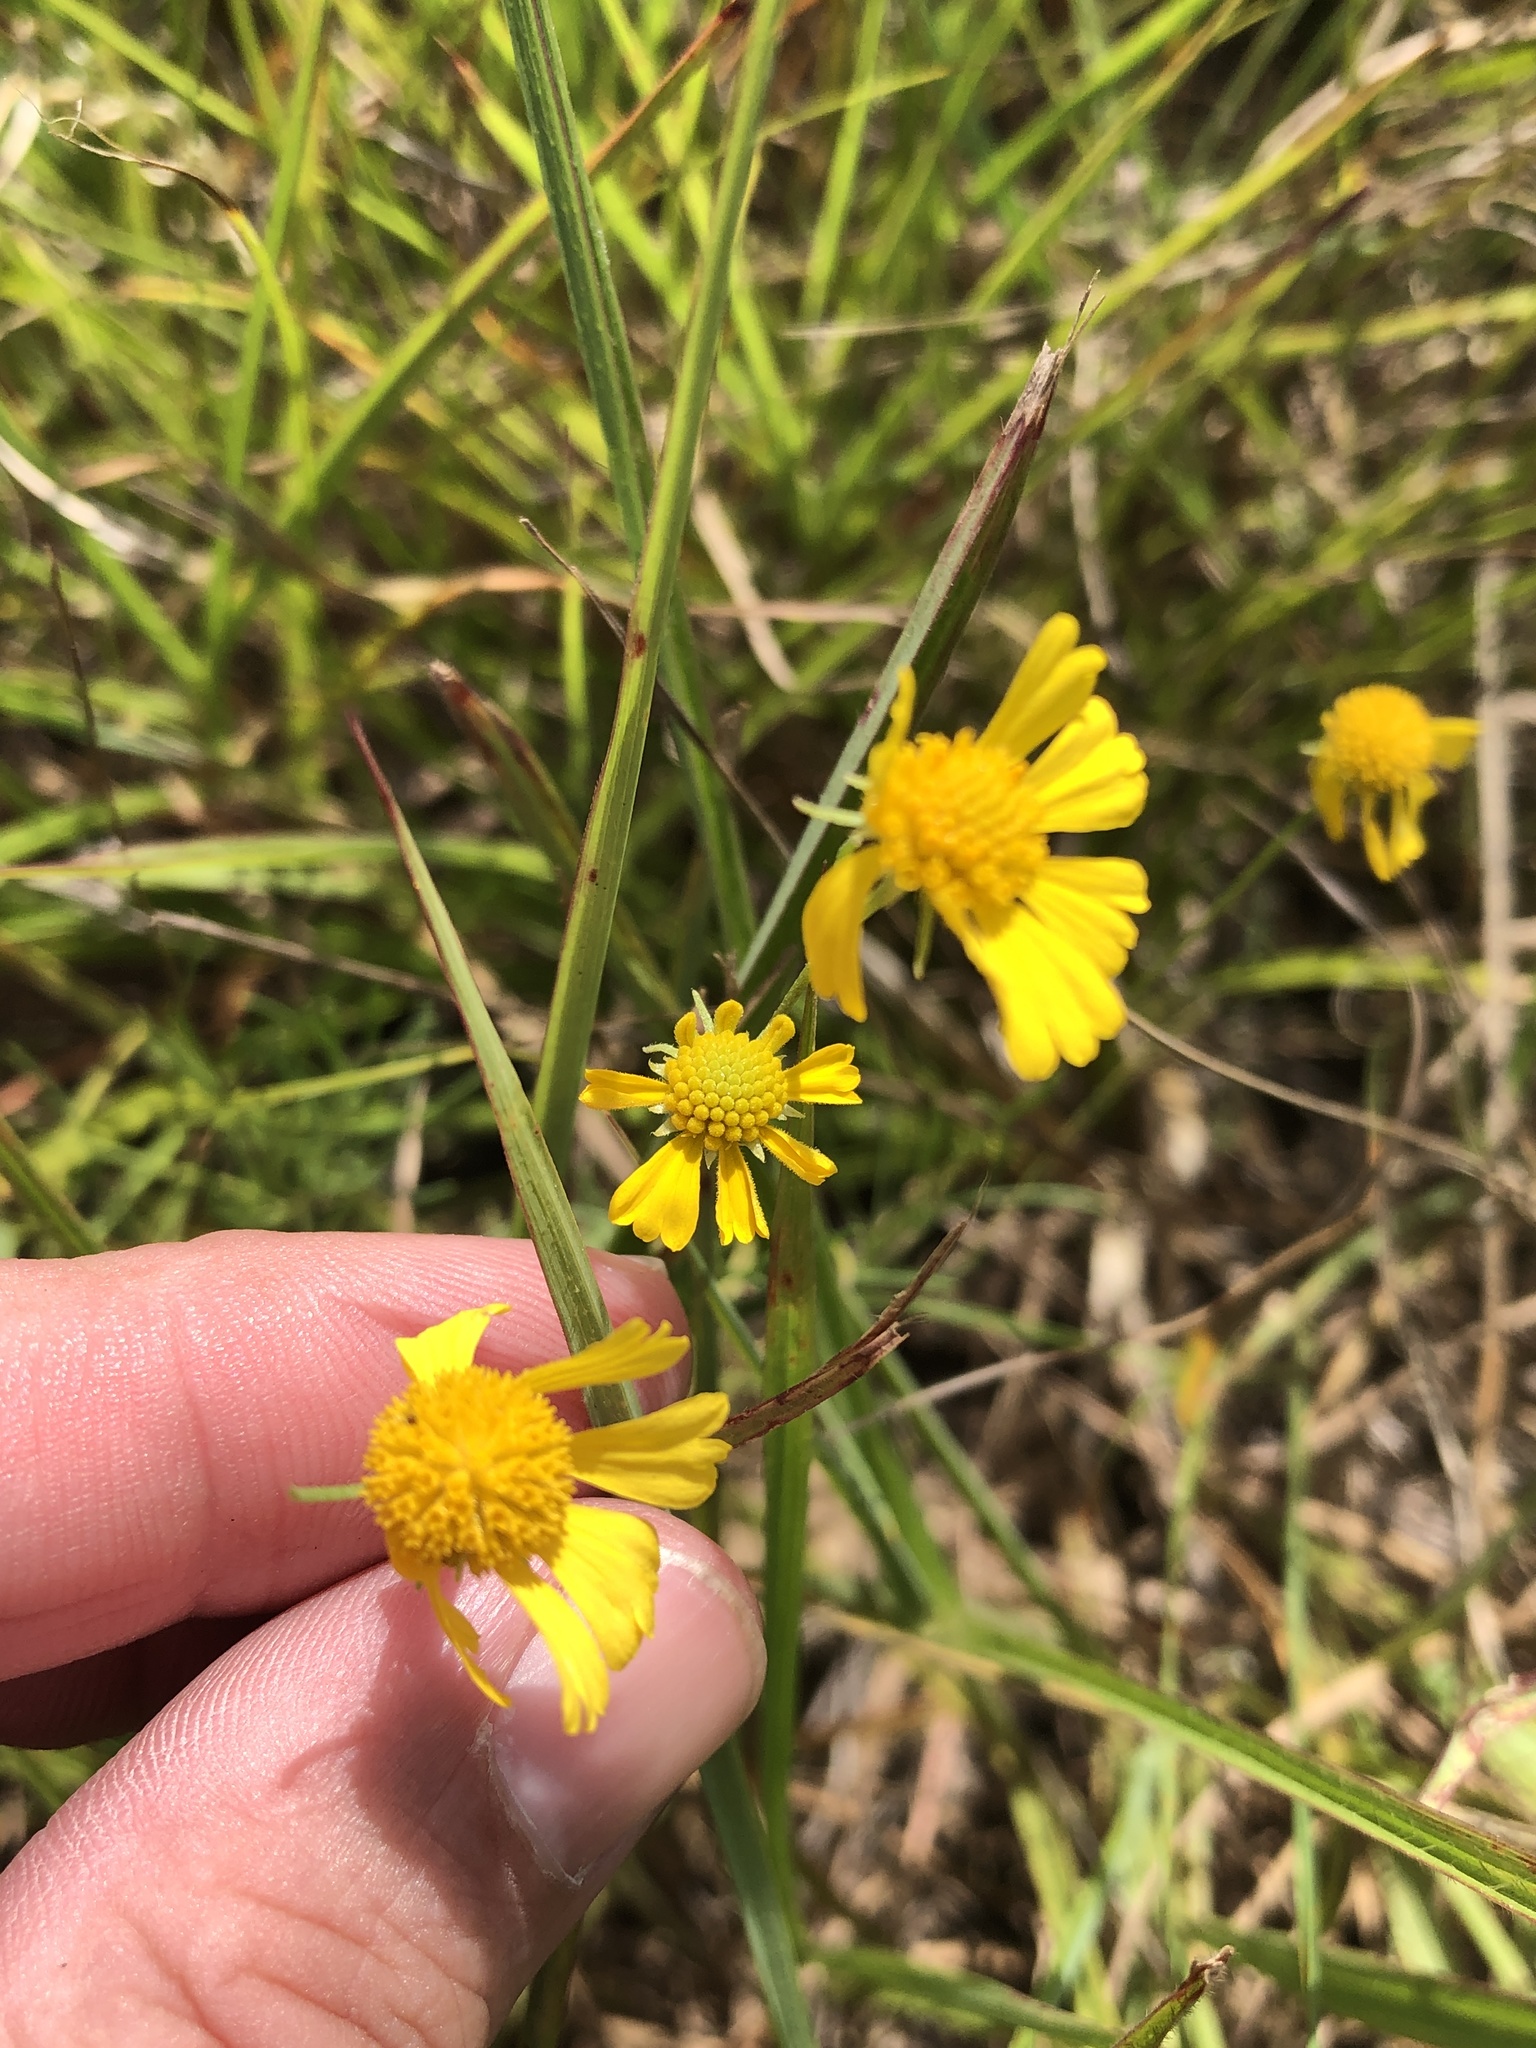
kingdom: Plantae
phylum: Tracheophyta
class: Magnoliopsida
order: Asterales
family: Asteraceae
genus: Helenium
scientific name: Helenium amarum
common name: Bitter sneezeweed
